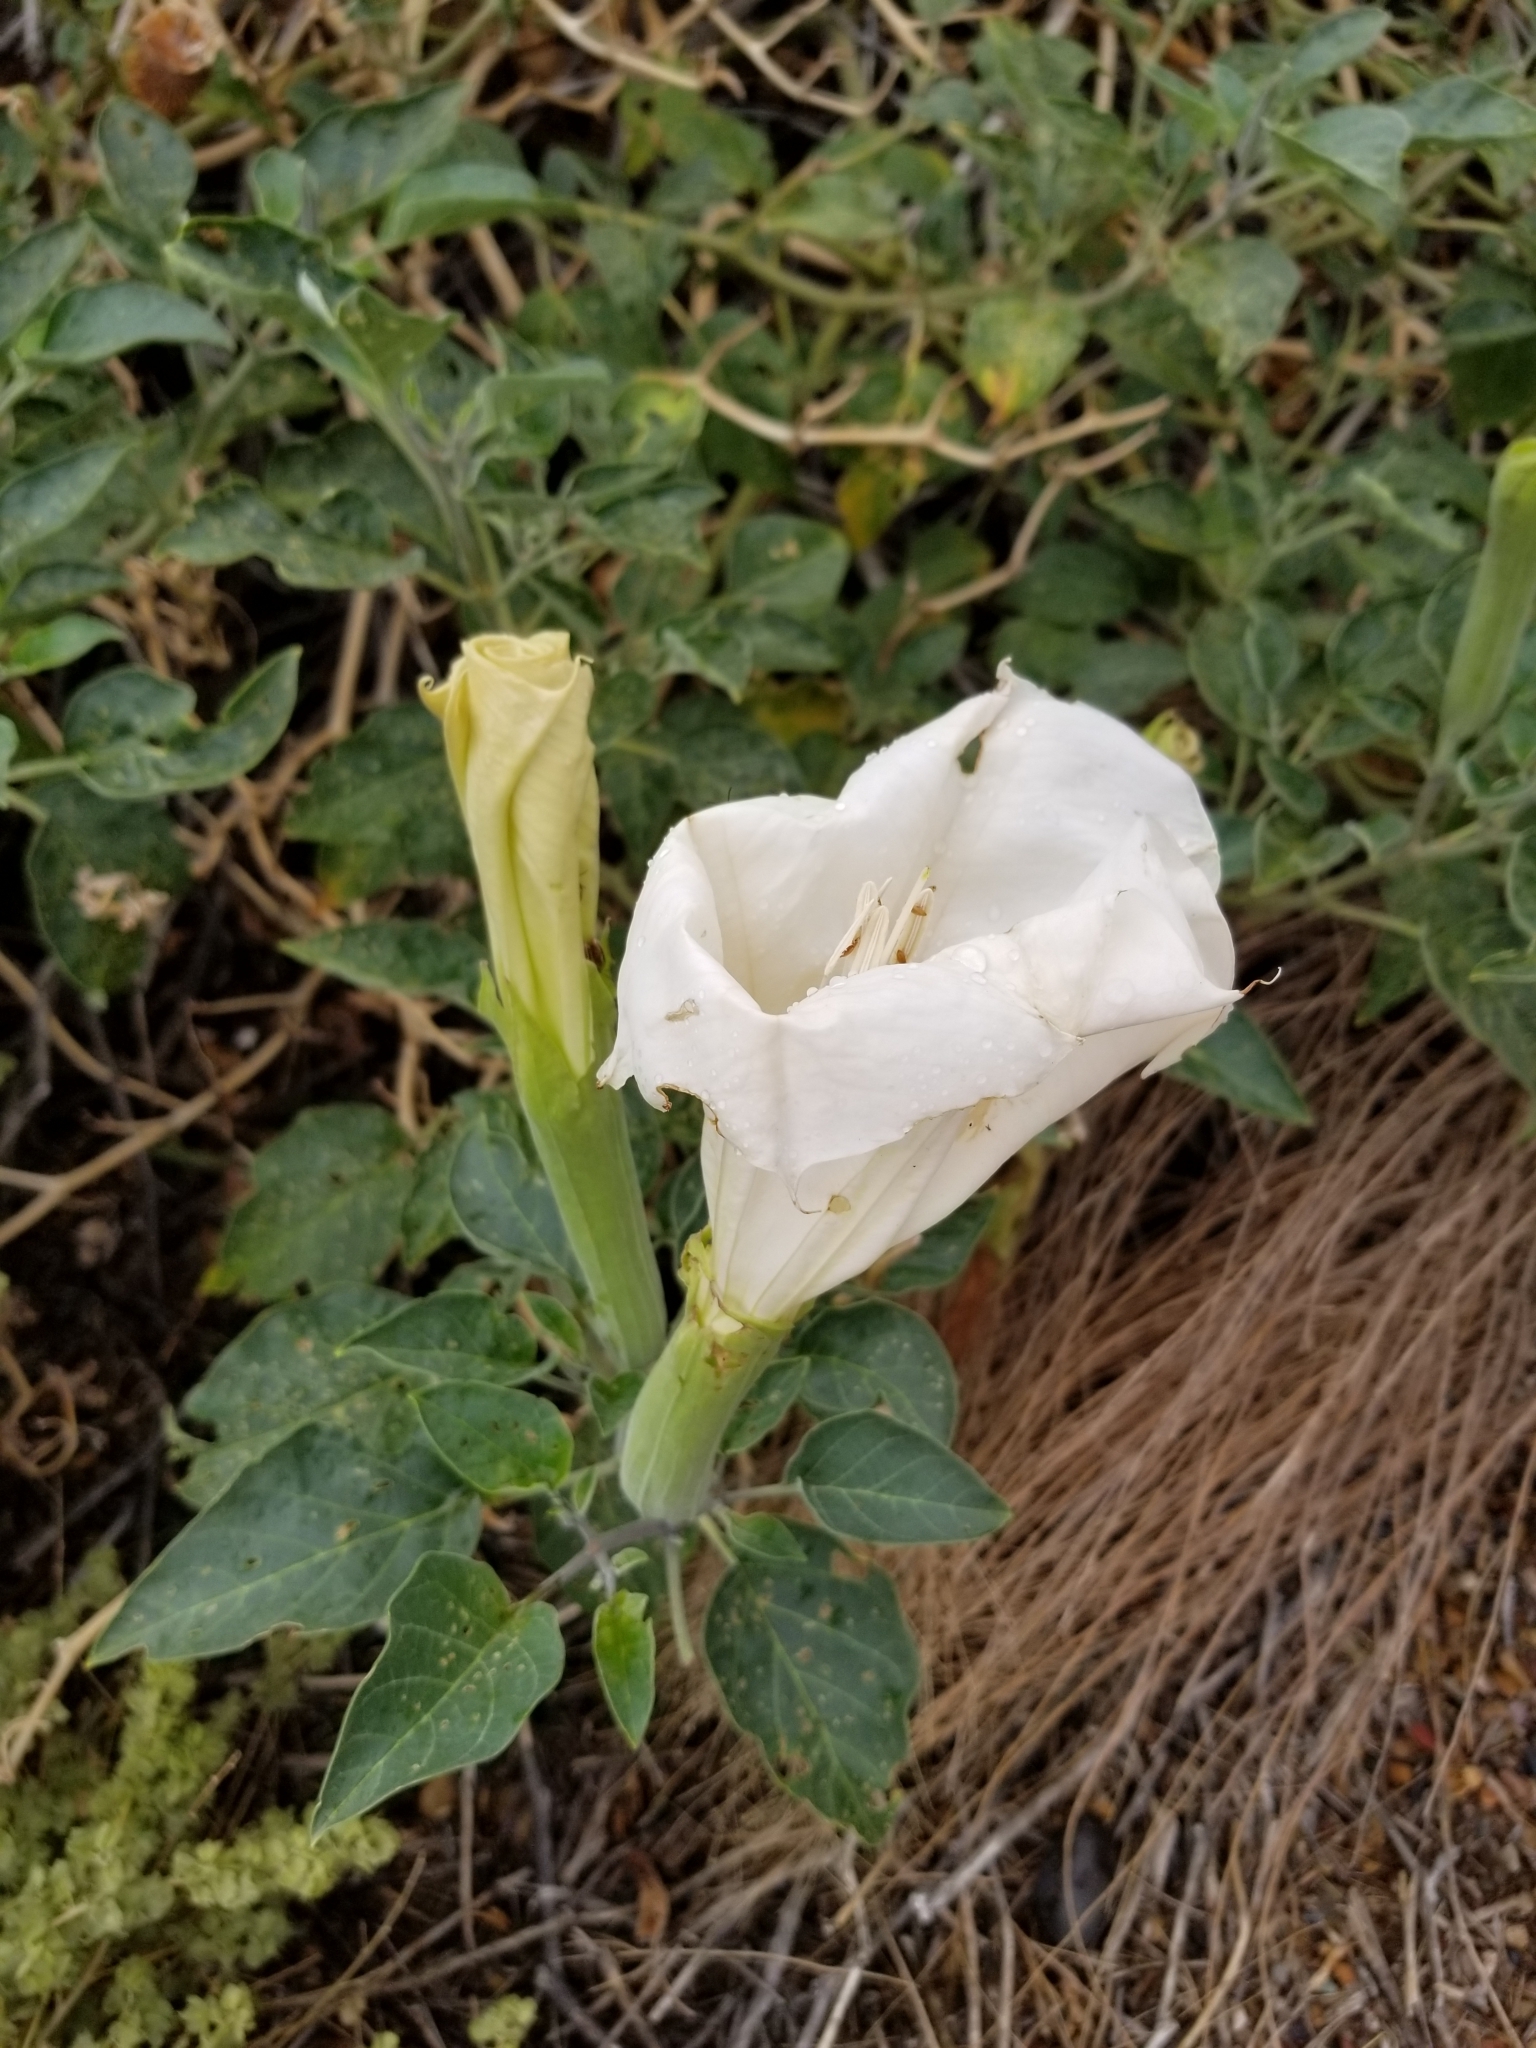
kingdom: Plantae
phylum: Tracheophyta
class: Magnoliopsida
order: Solanales
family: Solanaceae
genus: Datura
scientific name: Datura wrightii
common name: Sacred thorn-apple
